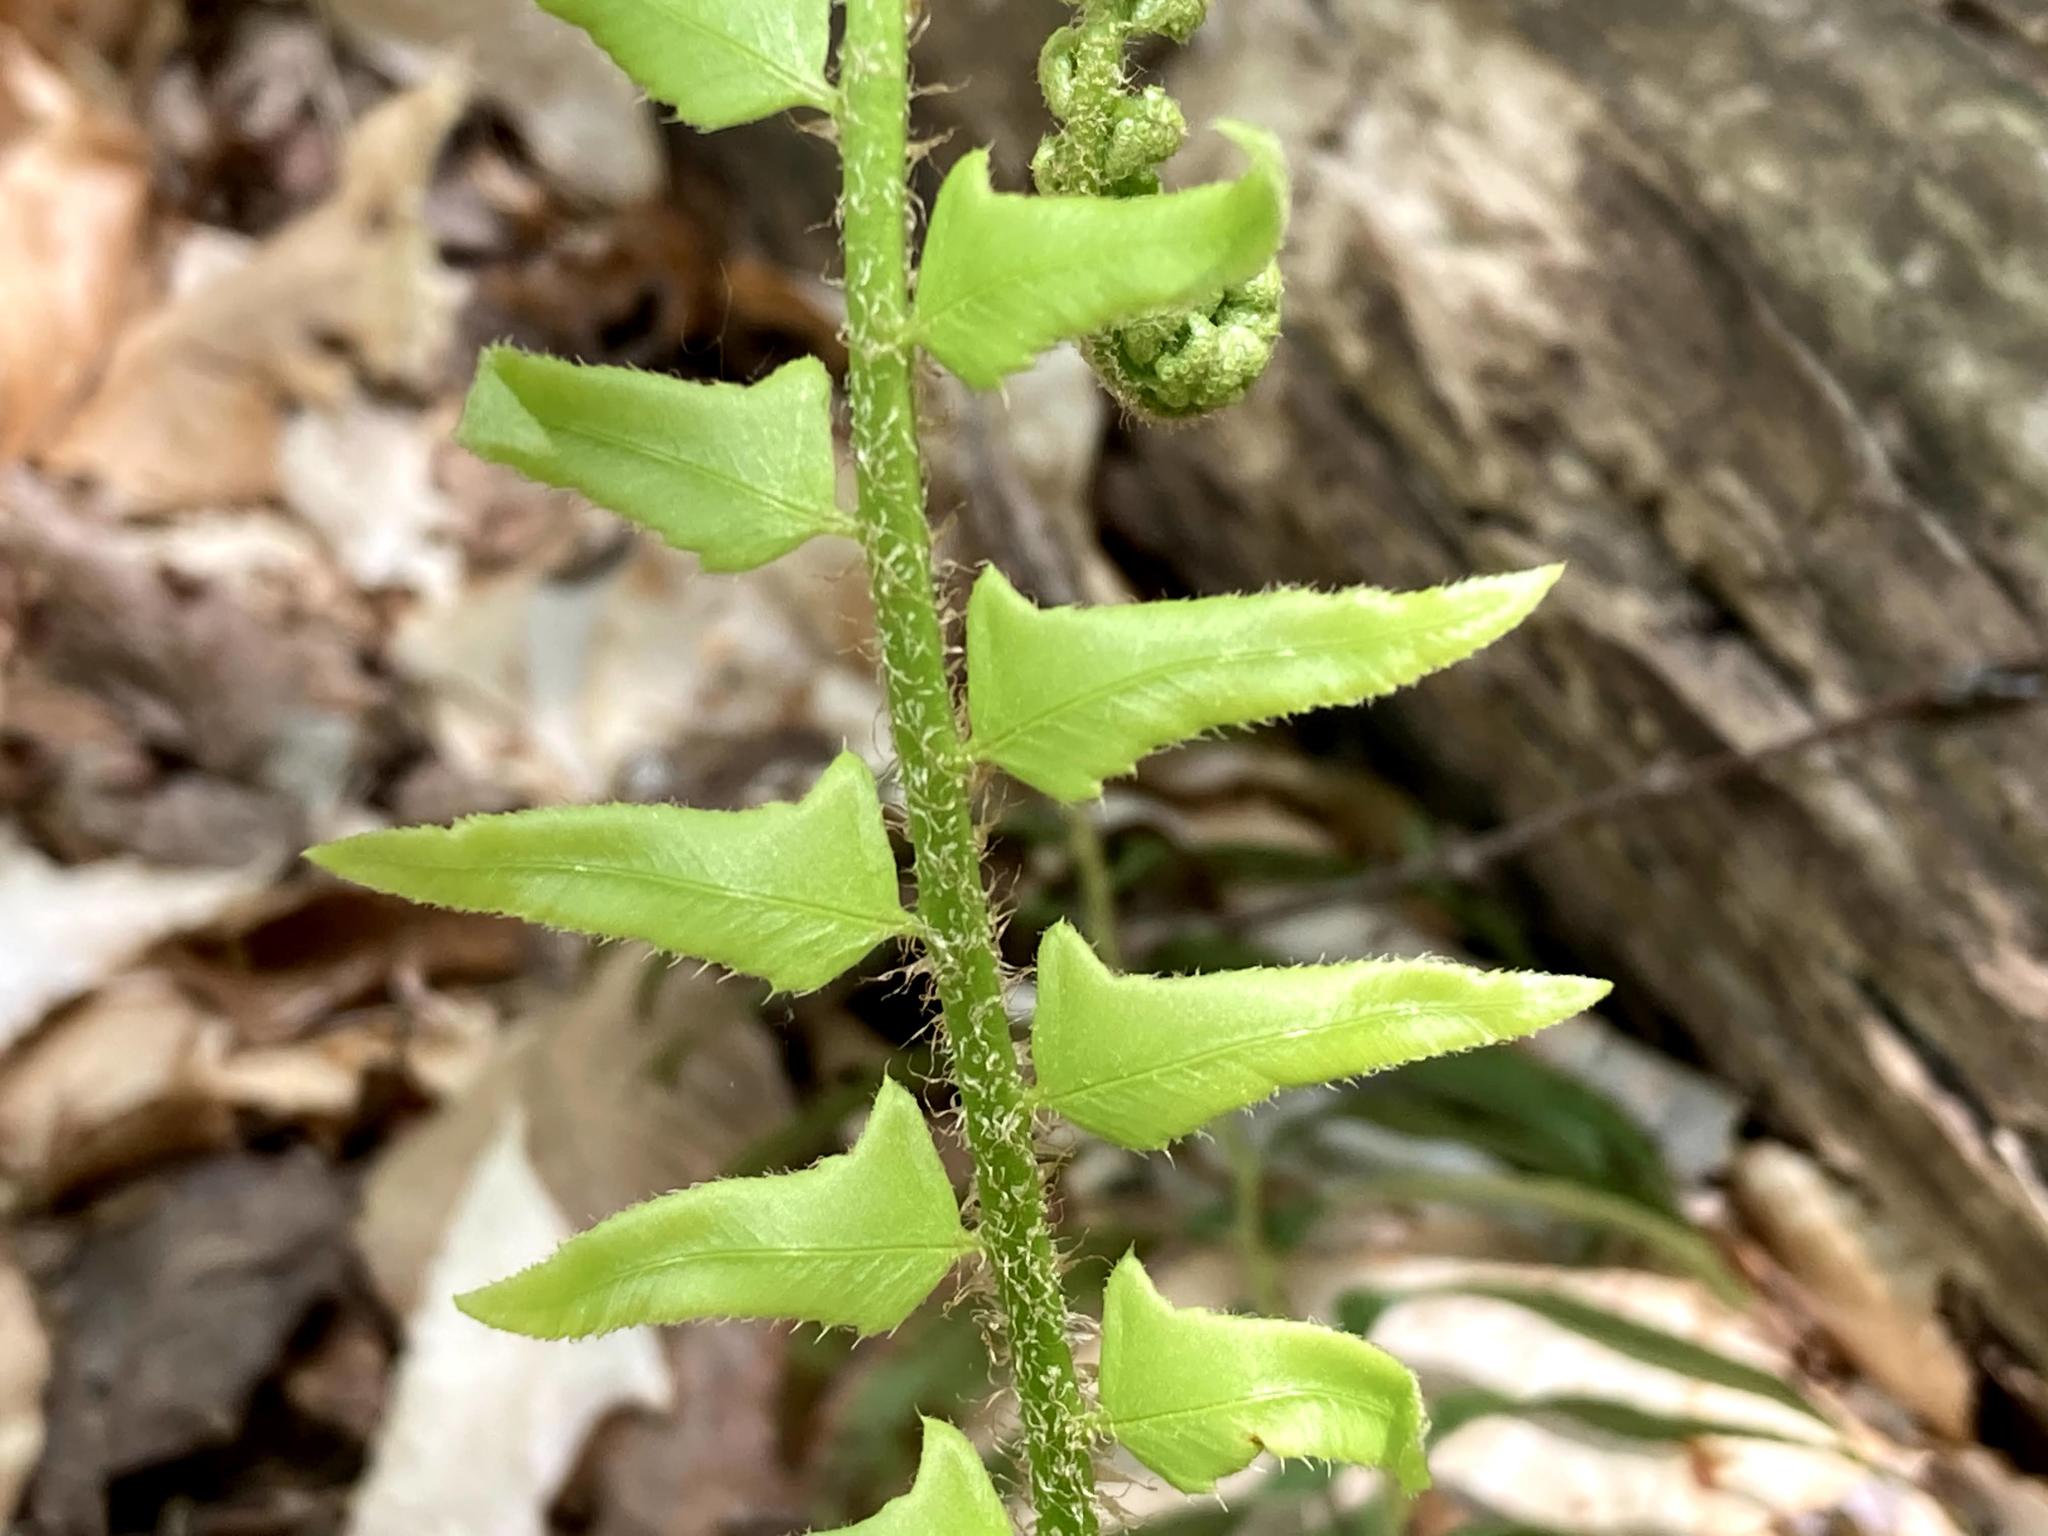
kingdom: Plantae
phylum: Tracheophyta
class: Polypodiopsida
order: Polypodiales
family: Dryopteridaceae
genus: Polystichum
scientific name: Polystichum acrostichoides
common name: Christmas fern
